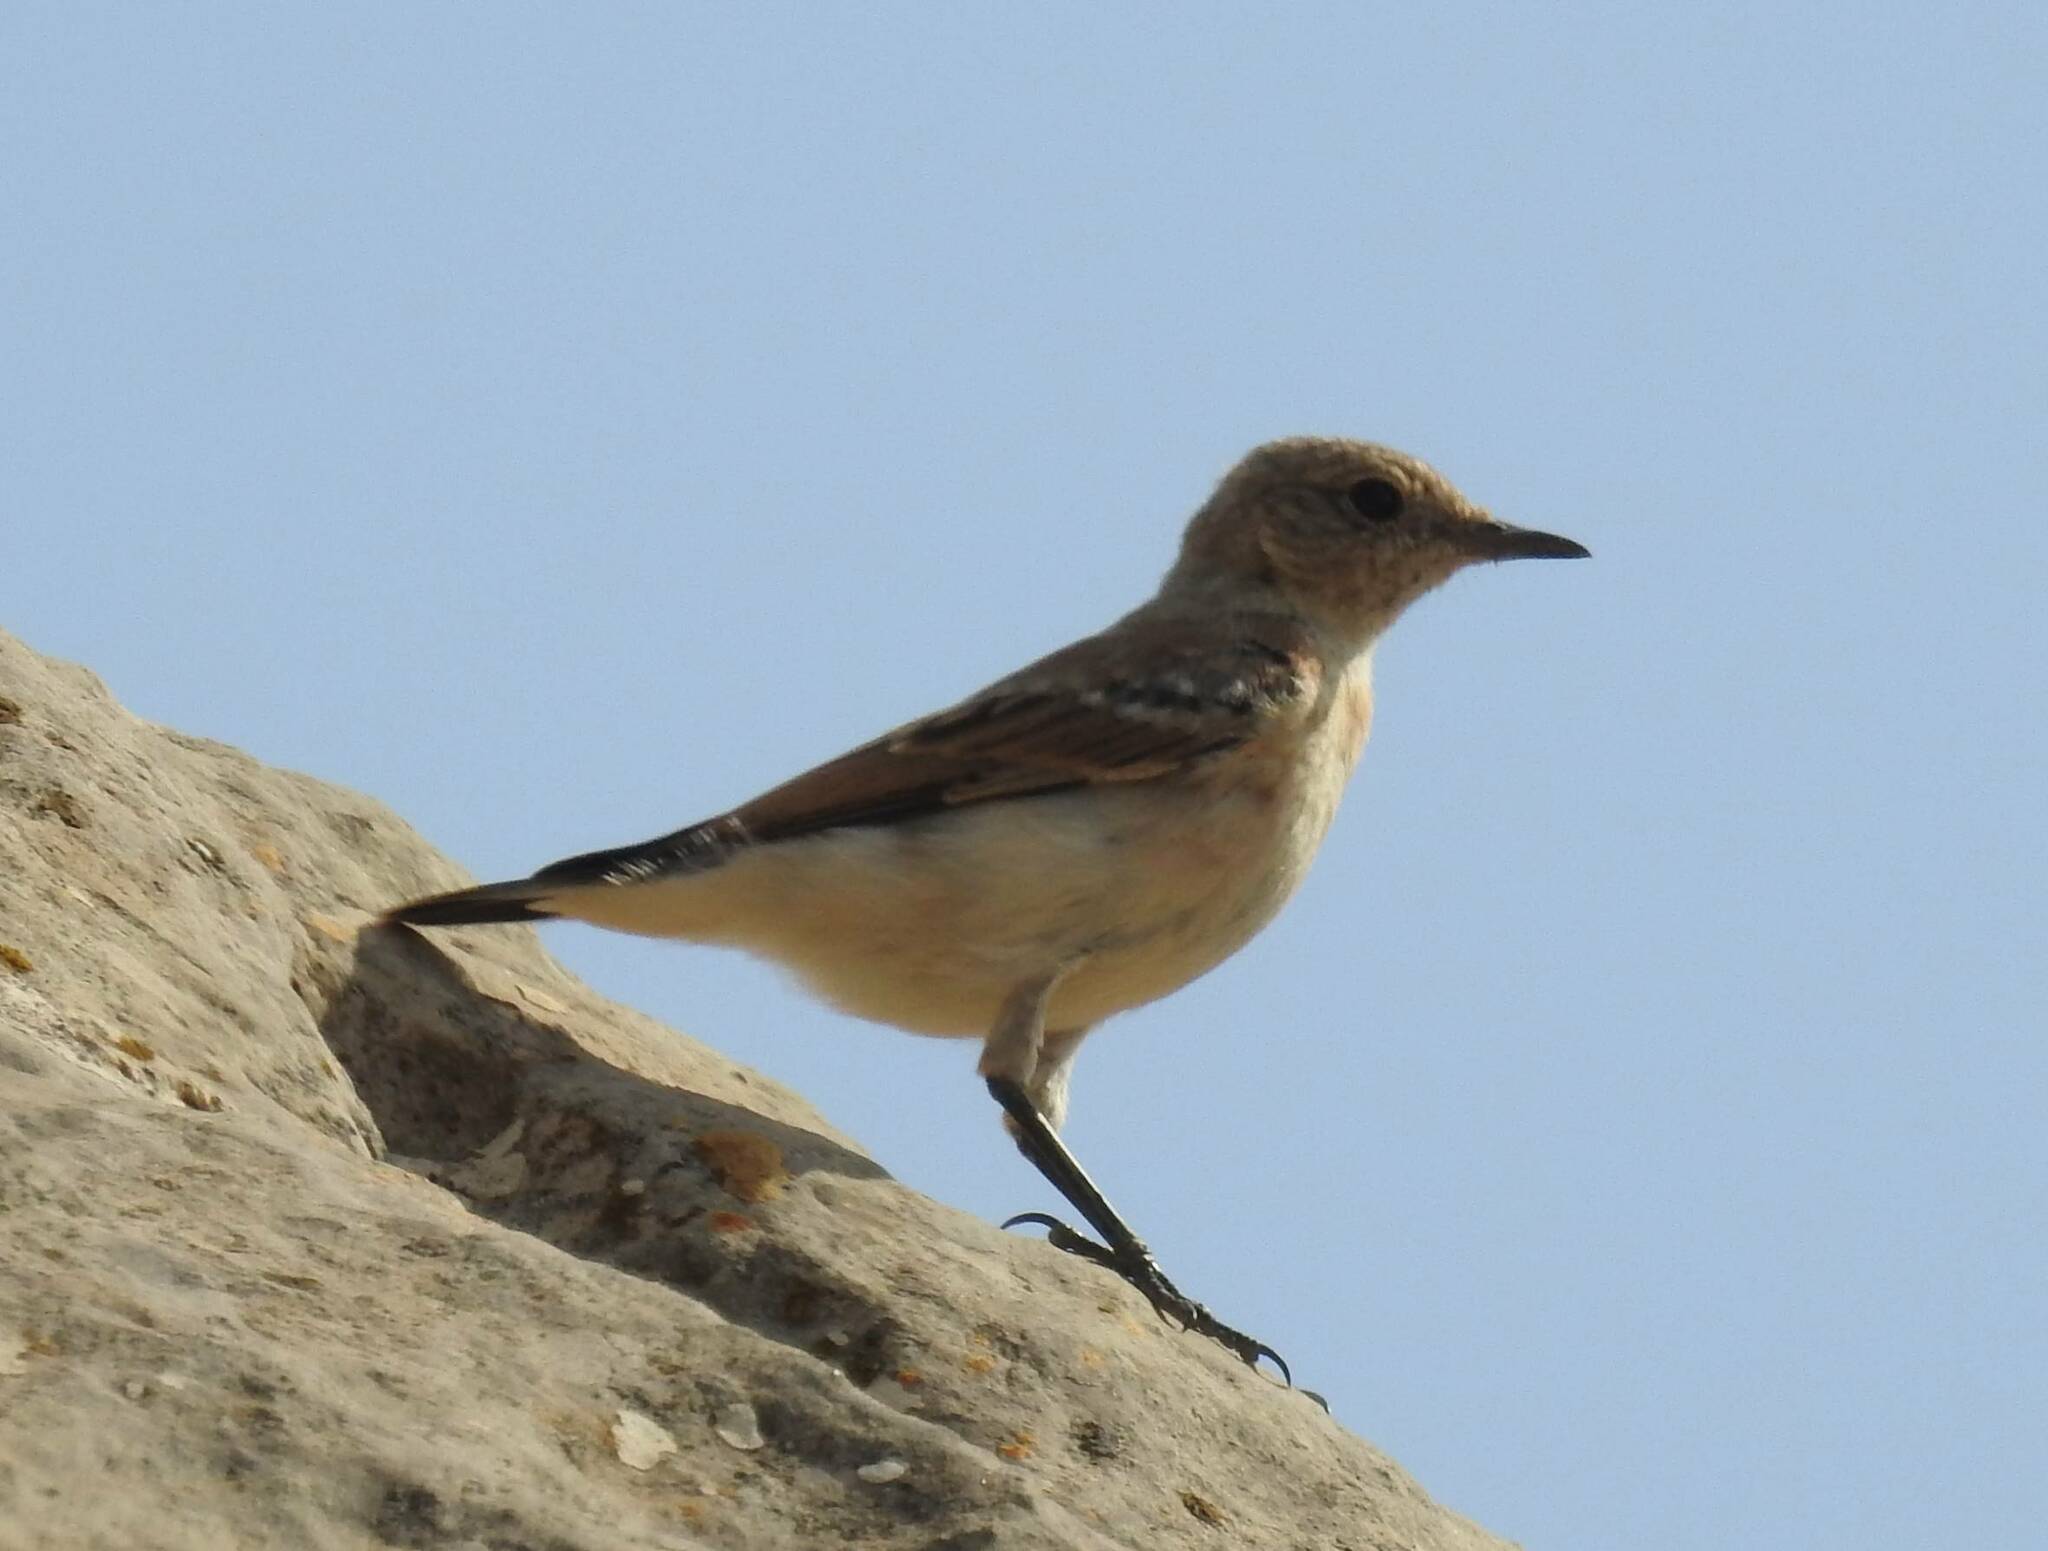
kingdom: Animalia
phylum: Chordata
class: Aves
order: Passeriformes
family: Muscicapidae
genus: Oenanthe
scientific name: Oenanthe oenanthe
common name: Northern wheatear
